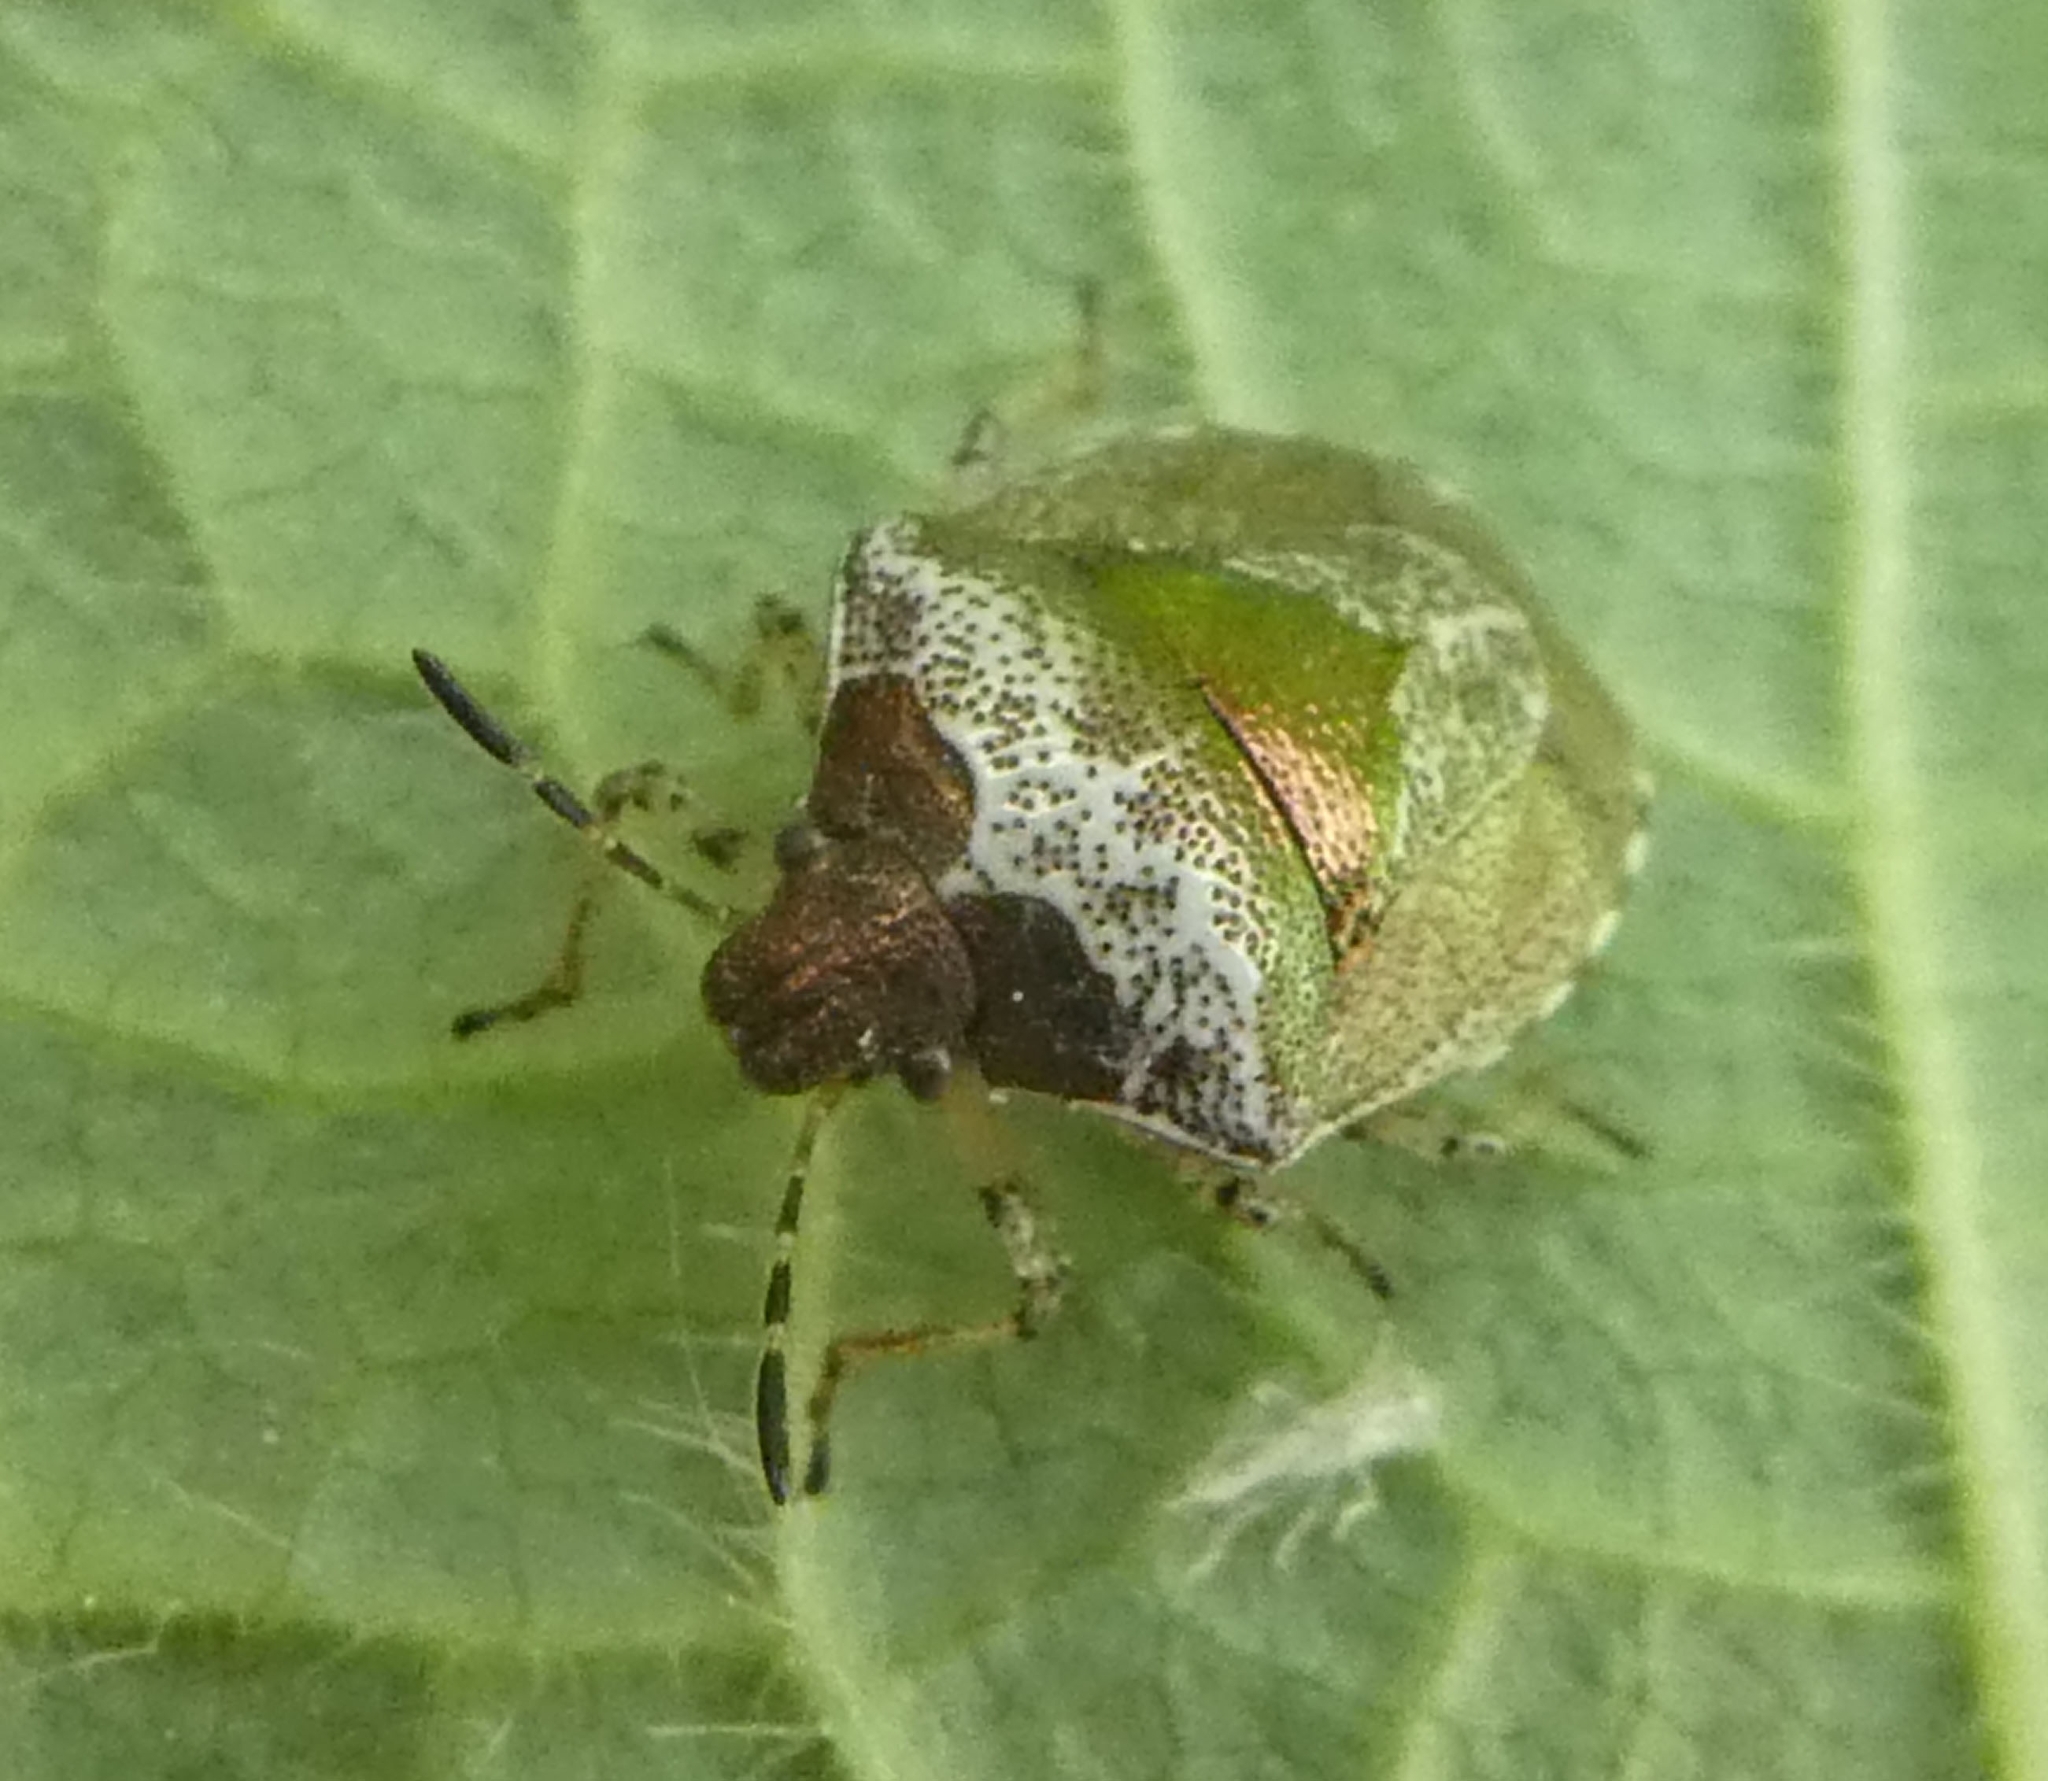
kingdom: Animalia
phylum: Arthropoda
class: Insecta
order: Hemiptera
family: Pentatomidae
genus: Eysarcoris
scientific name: Eysarcoris venustissimus
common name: Woundwort shieldbug
